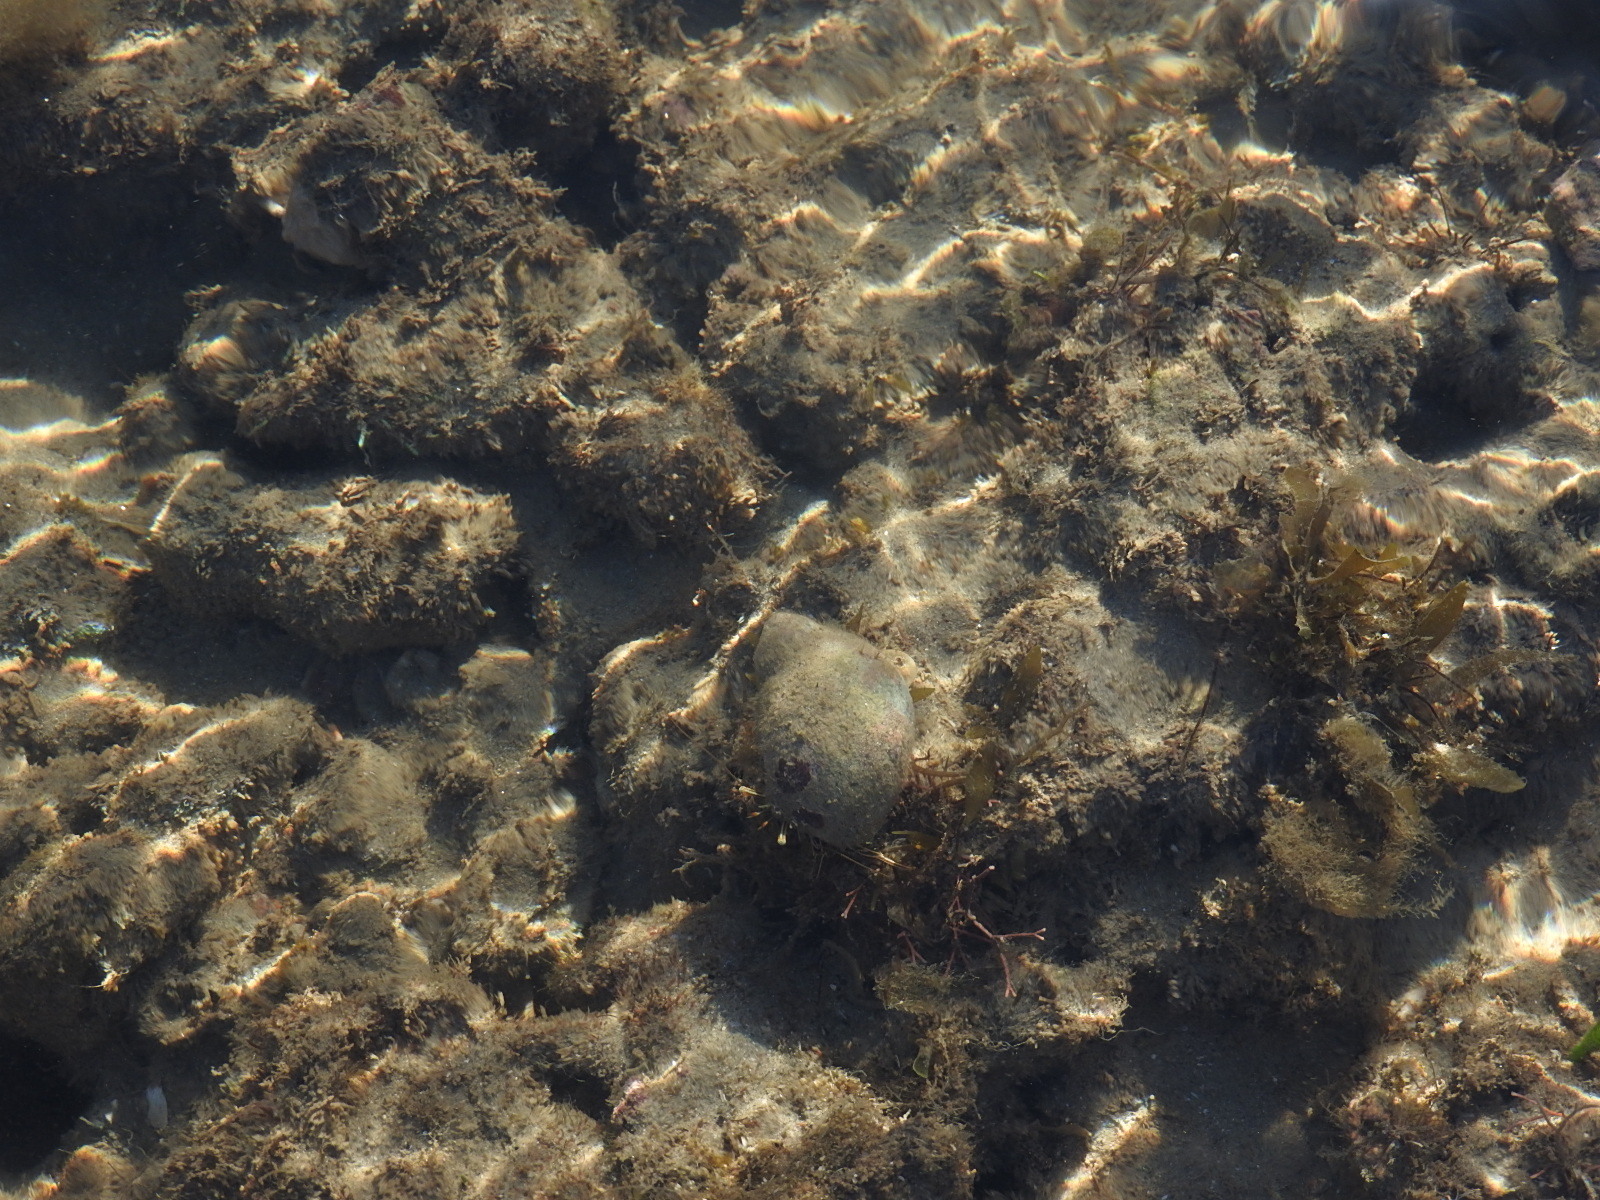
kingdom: Animalia
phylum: Arthropoda
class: Malacostraca
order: Decapoda
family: Diogenidae
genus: Clibanarius
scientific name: Clibanarius taeniatus
